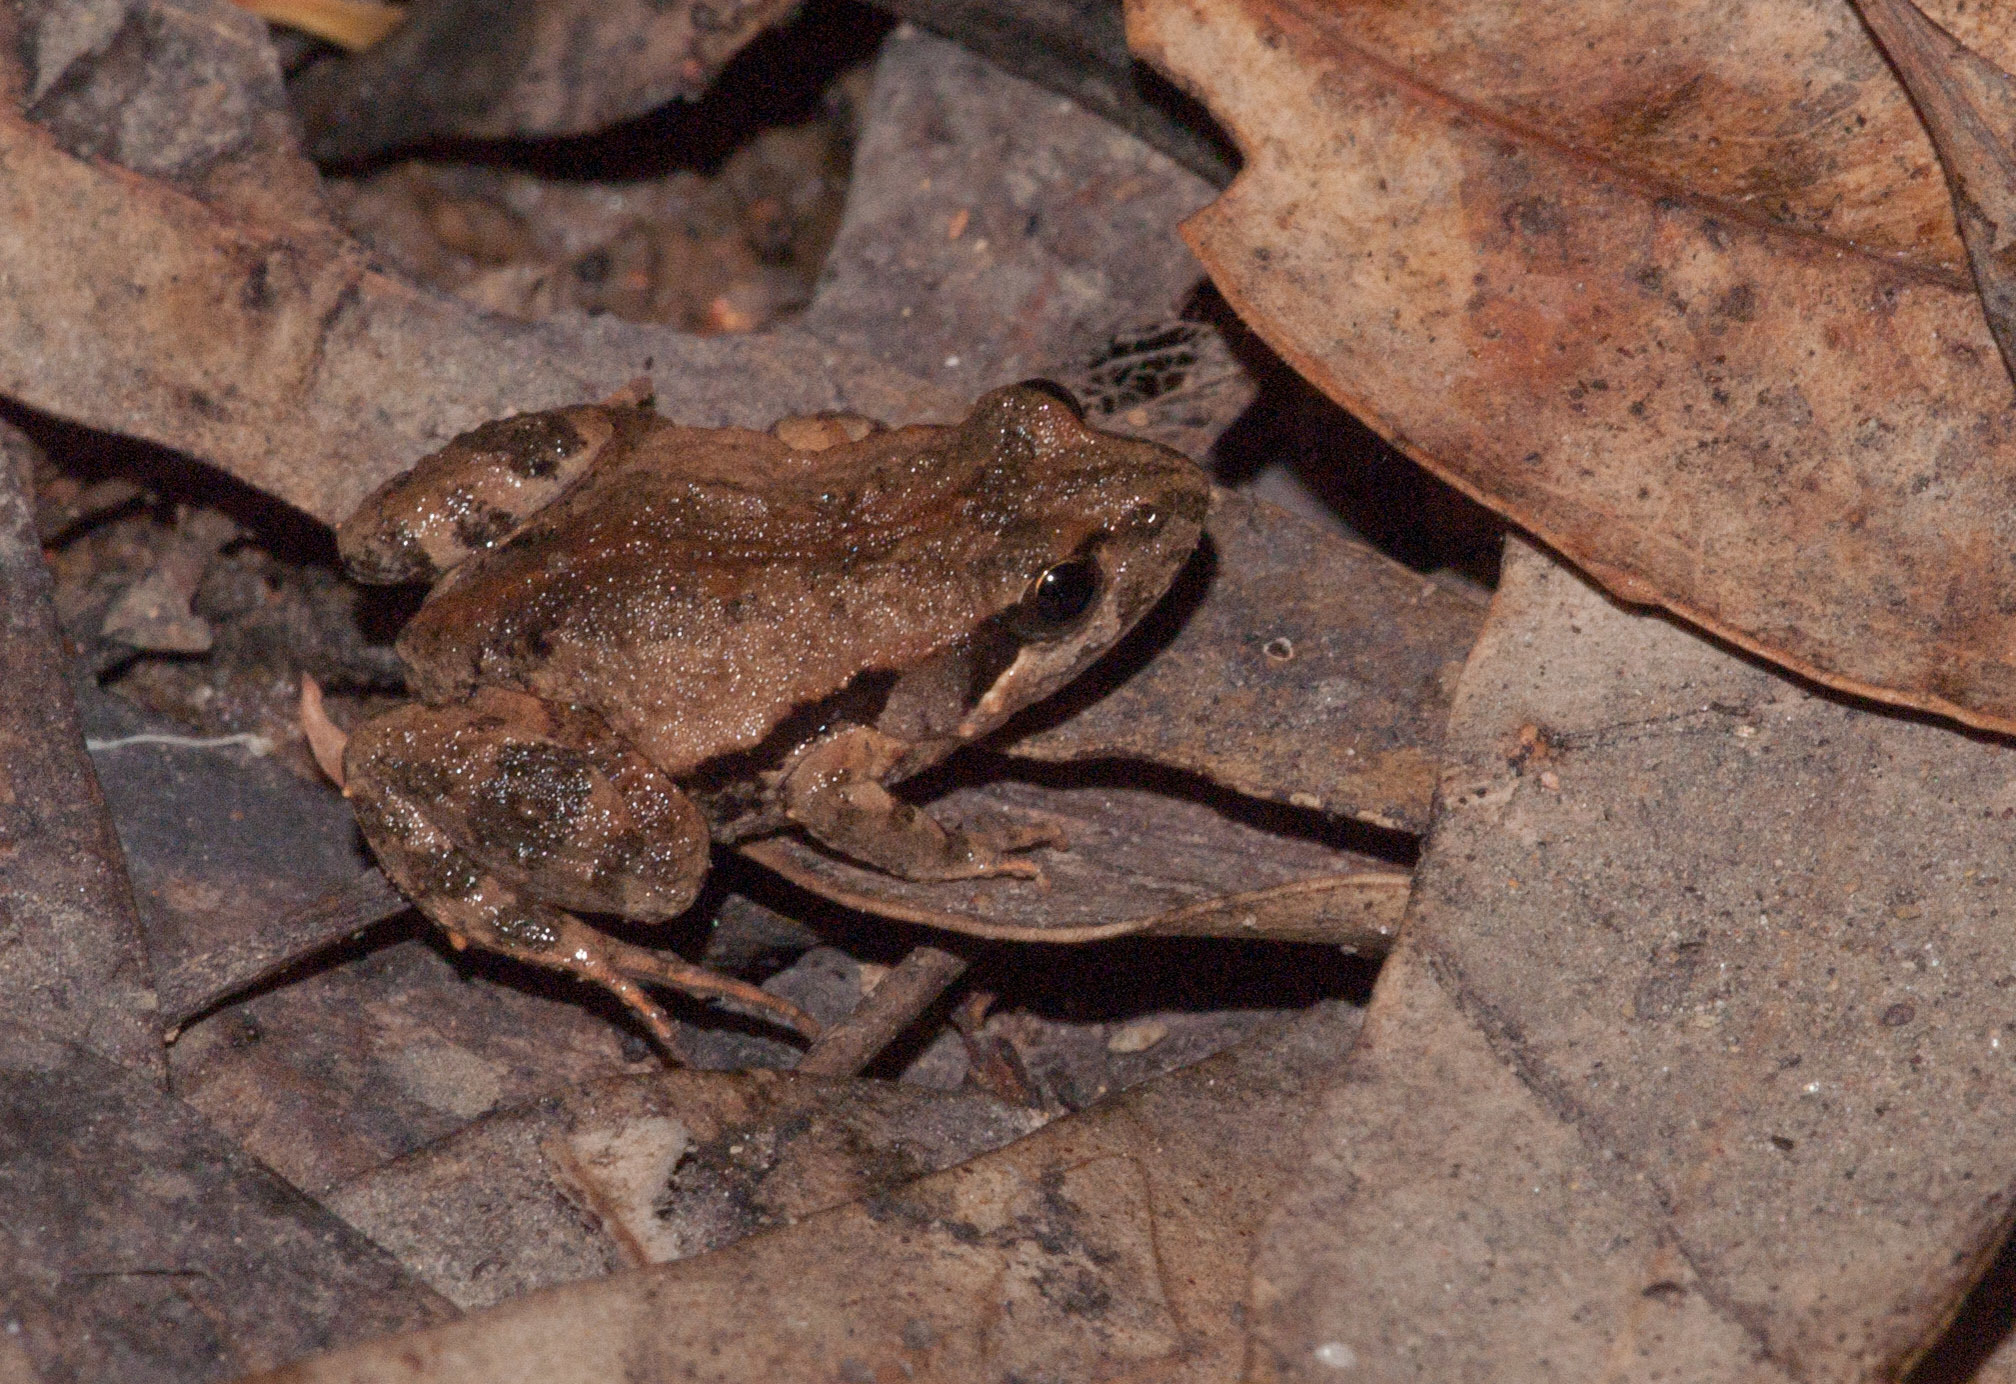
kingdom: Animalia
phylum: Chordata
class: Amphibia
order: Anura
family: Myobatrachidae
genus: Crinia
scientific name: Crinia signifera
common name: Brown froglet
